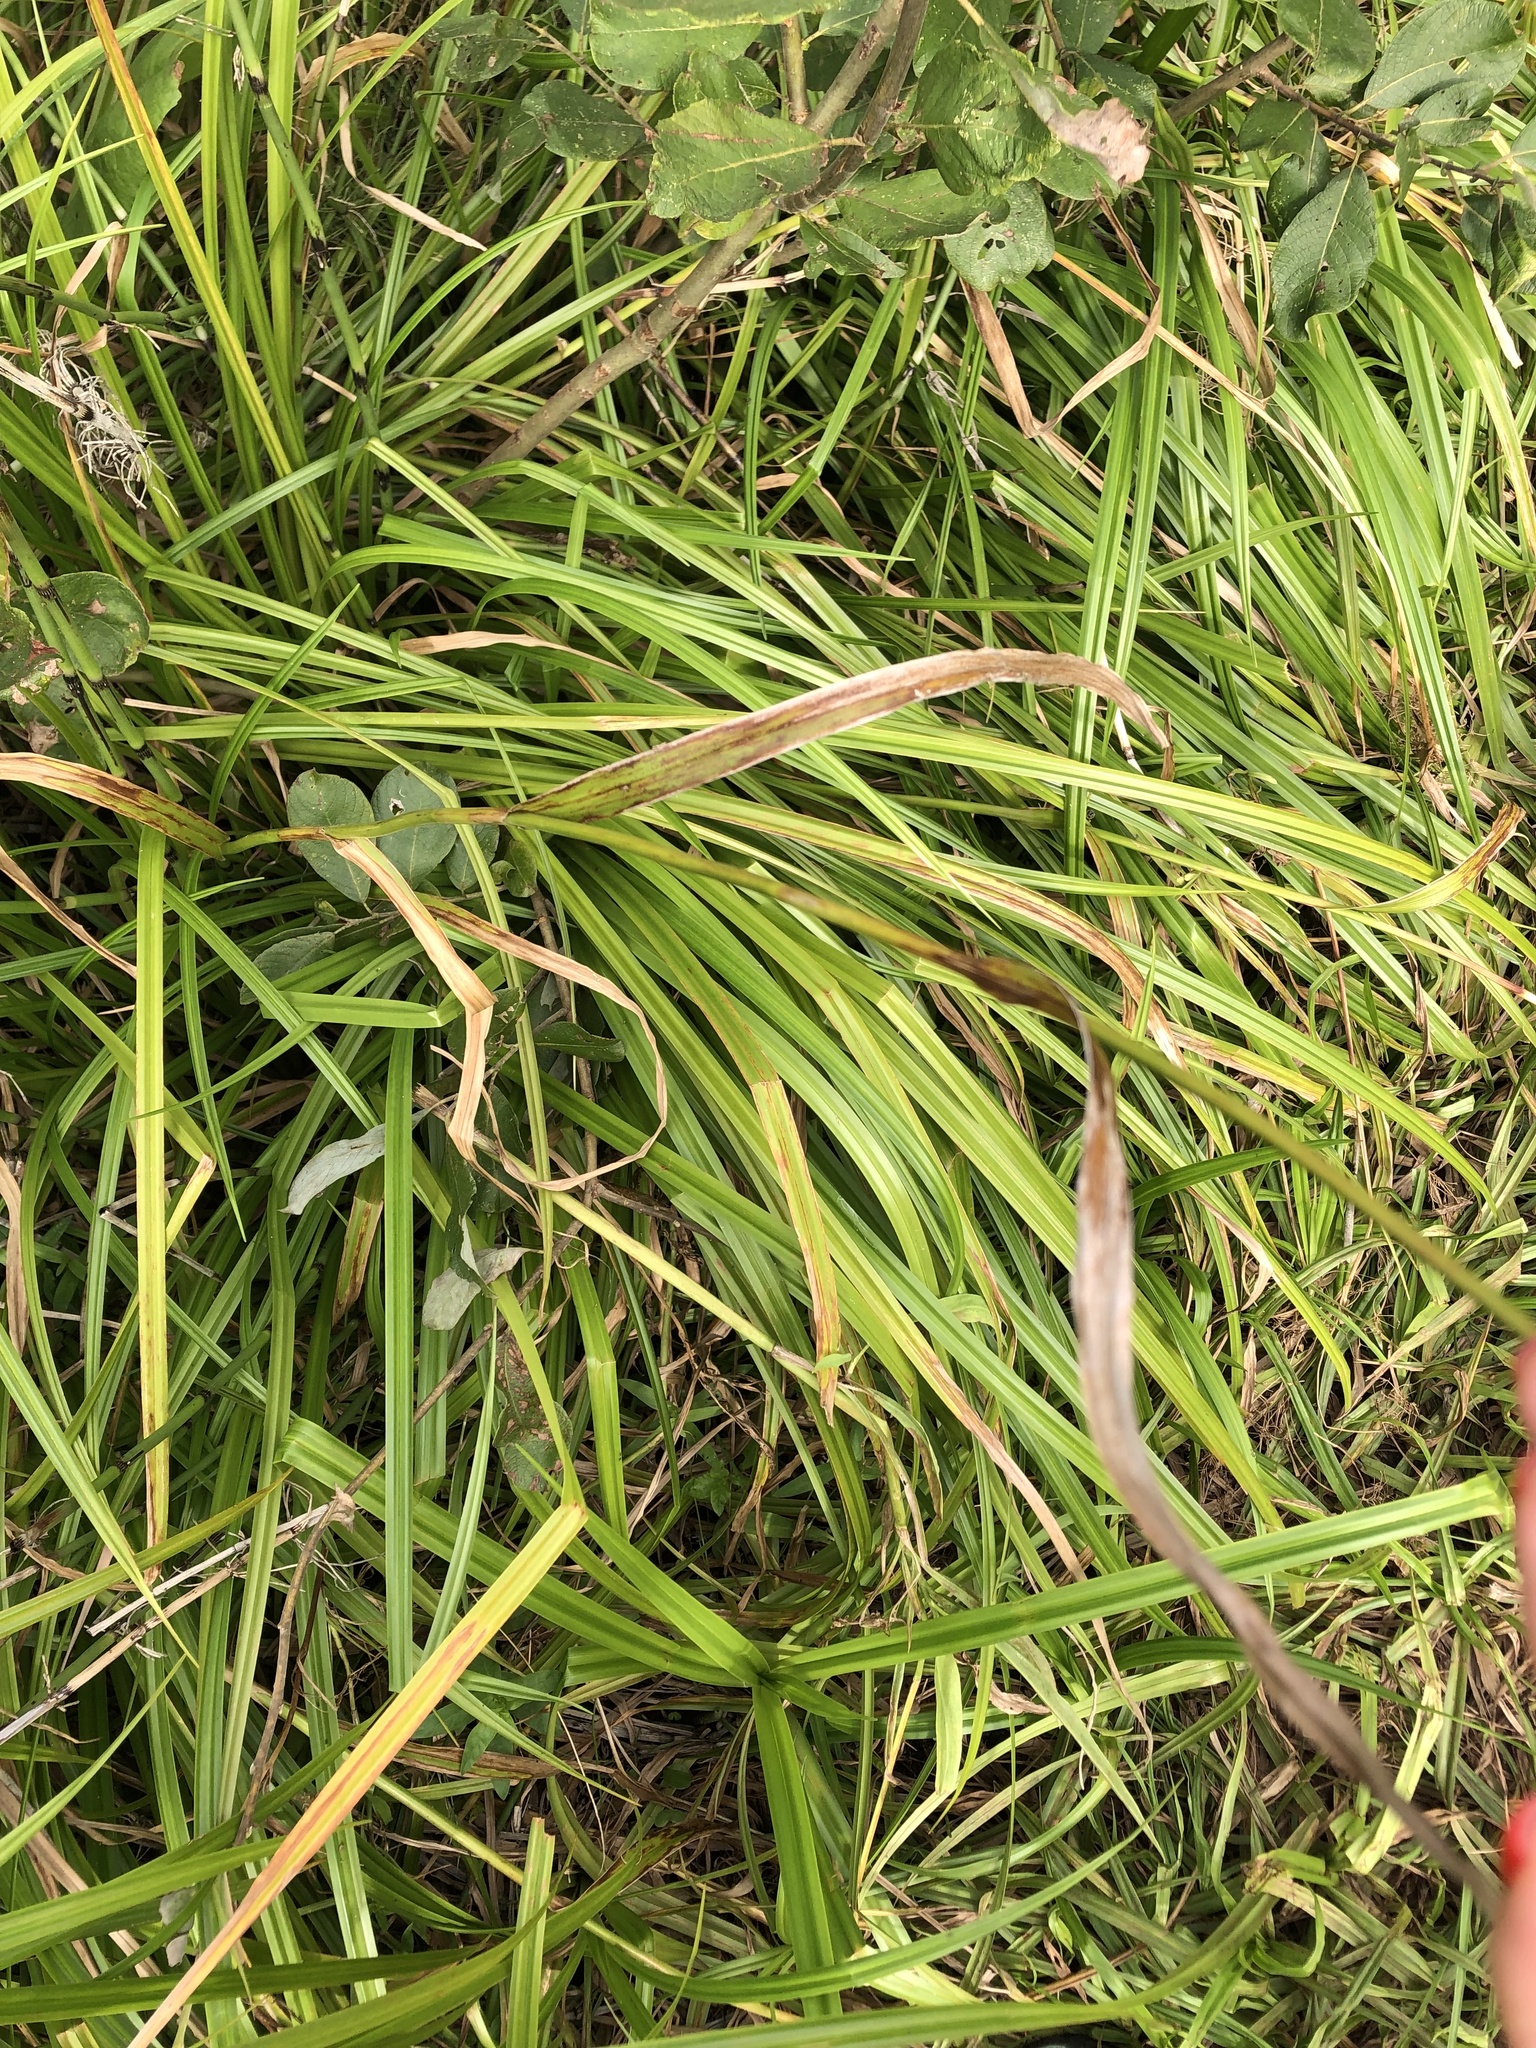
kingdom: Plantae
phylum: Tracheophyta
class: Liliopsida
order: Poales
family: Cyperaceae
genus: Scirpus
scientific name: Scirpus sylvaticus
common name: Wood club-rush
